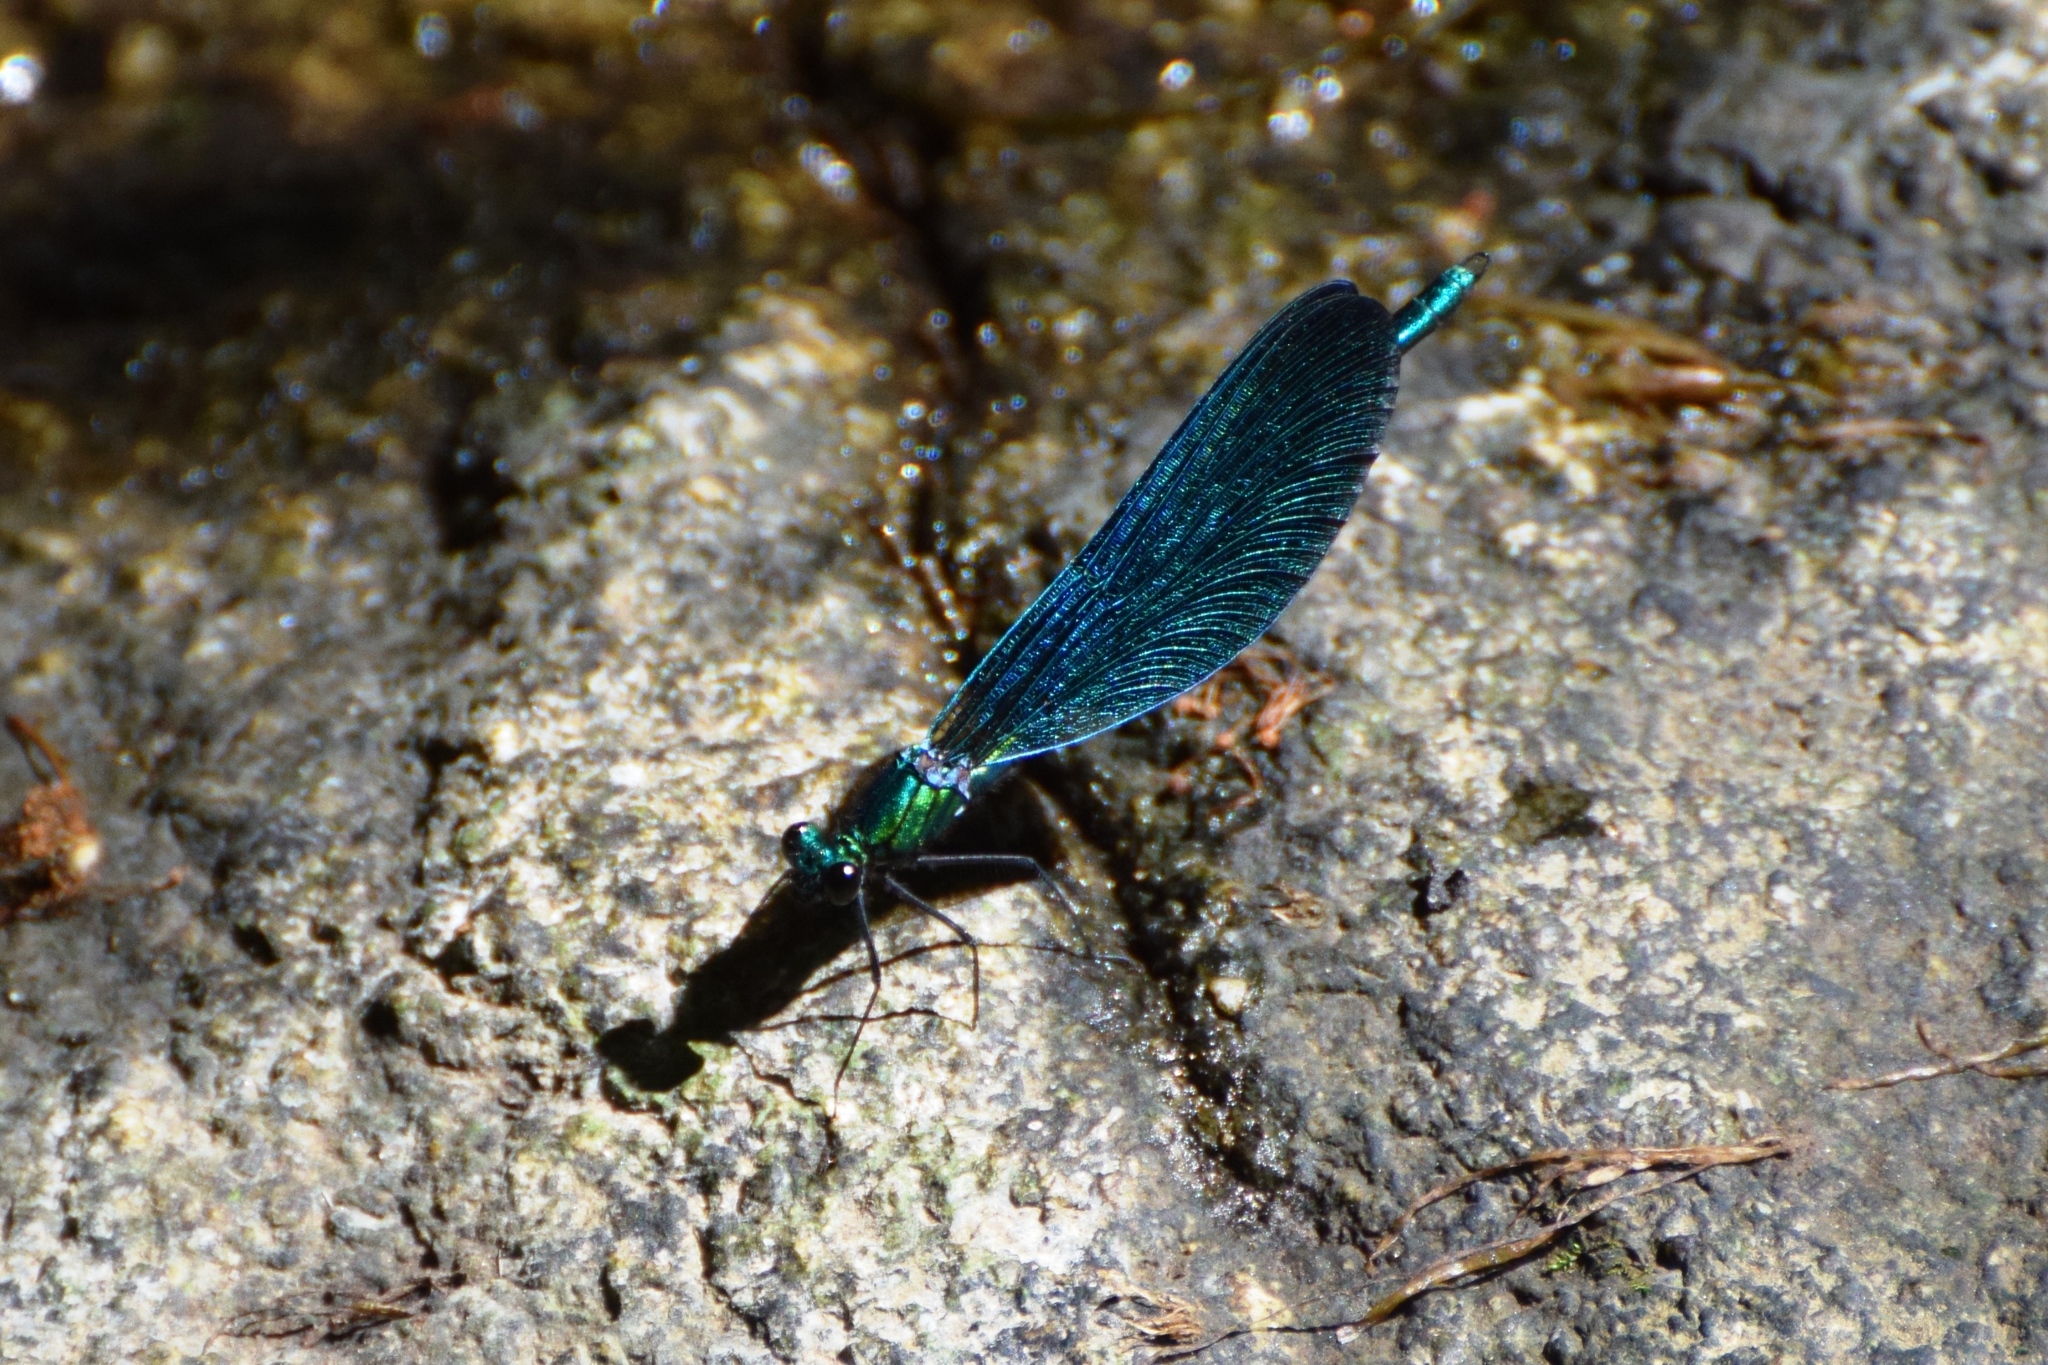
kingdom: Animalia
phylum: Arthropoda
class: Insecta
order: Odonata
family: Calopterygidae
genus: Calopteryx
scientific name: Calopteryx virgo
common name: Beautiful demoiselle
